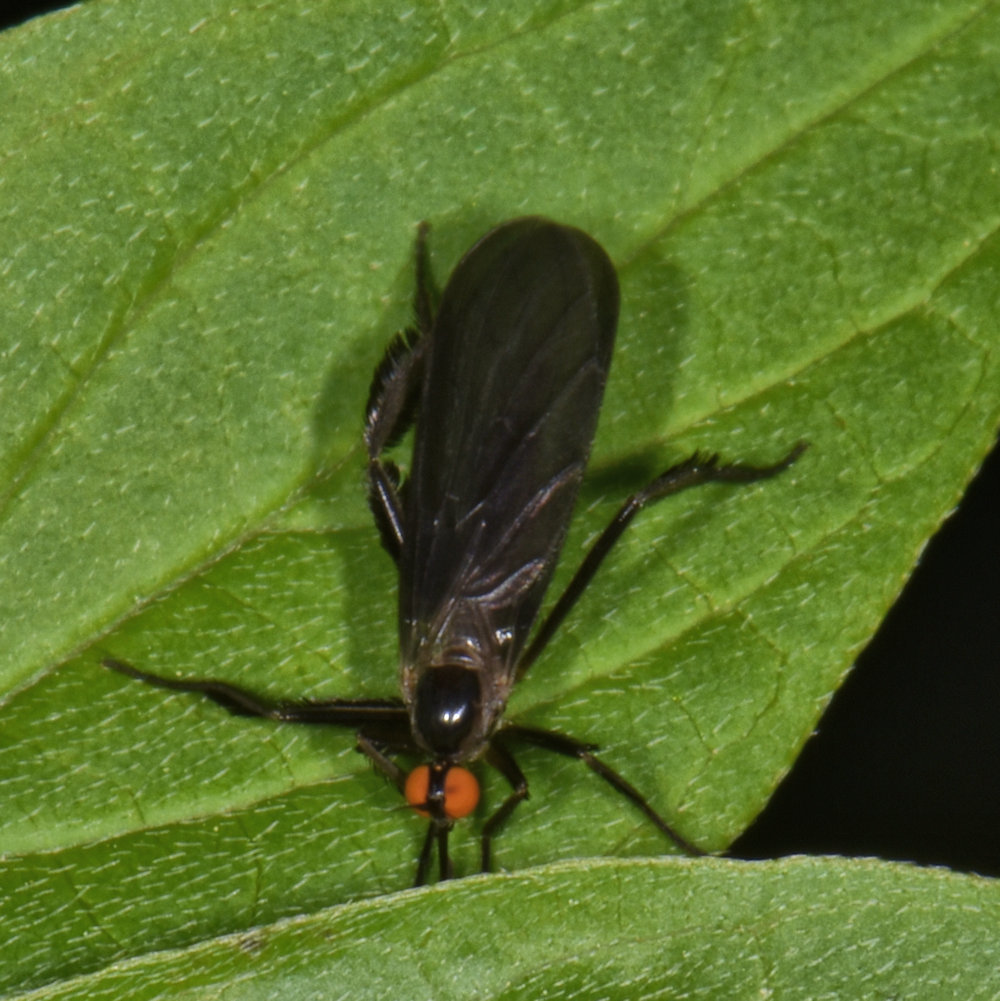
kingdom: Animalia
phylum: Arthropoda
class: Insecta
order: Diptera
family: Empididae
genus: Rhamphomyia
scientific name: Rhamphomyia longicauda
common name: Long-tailed dance fly
